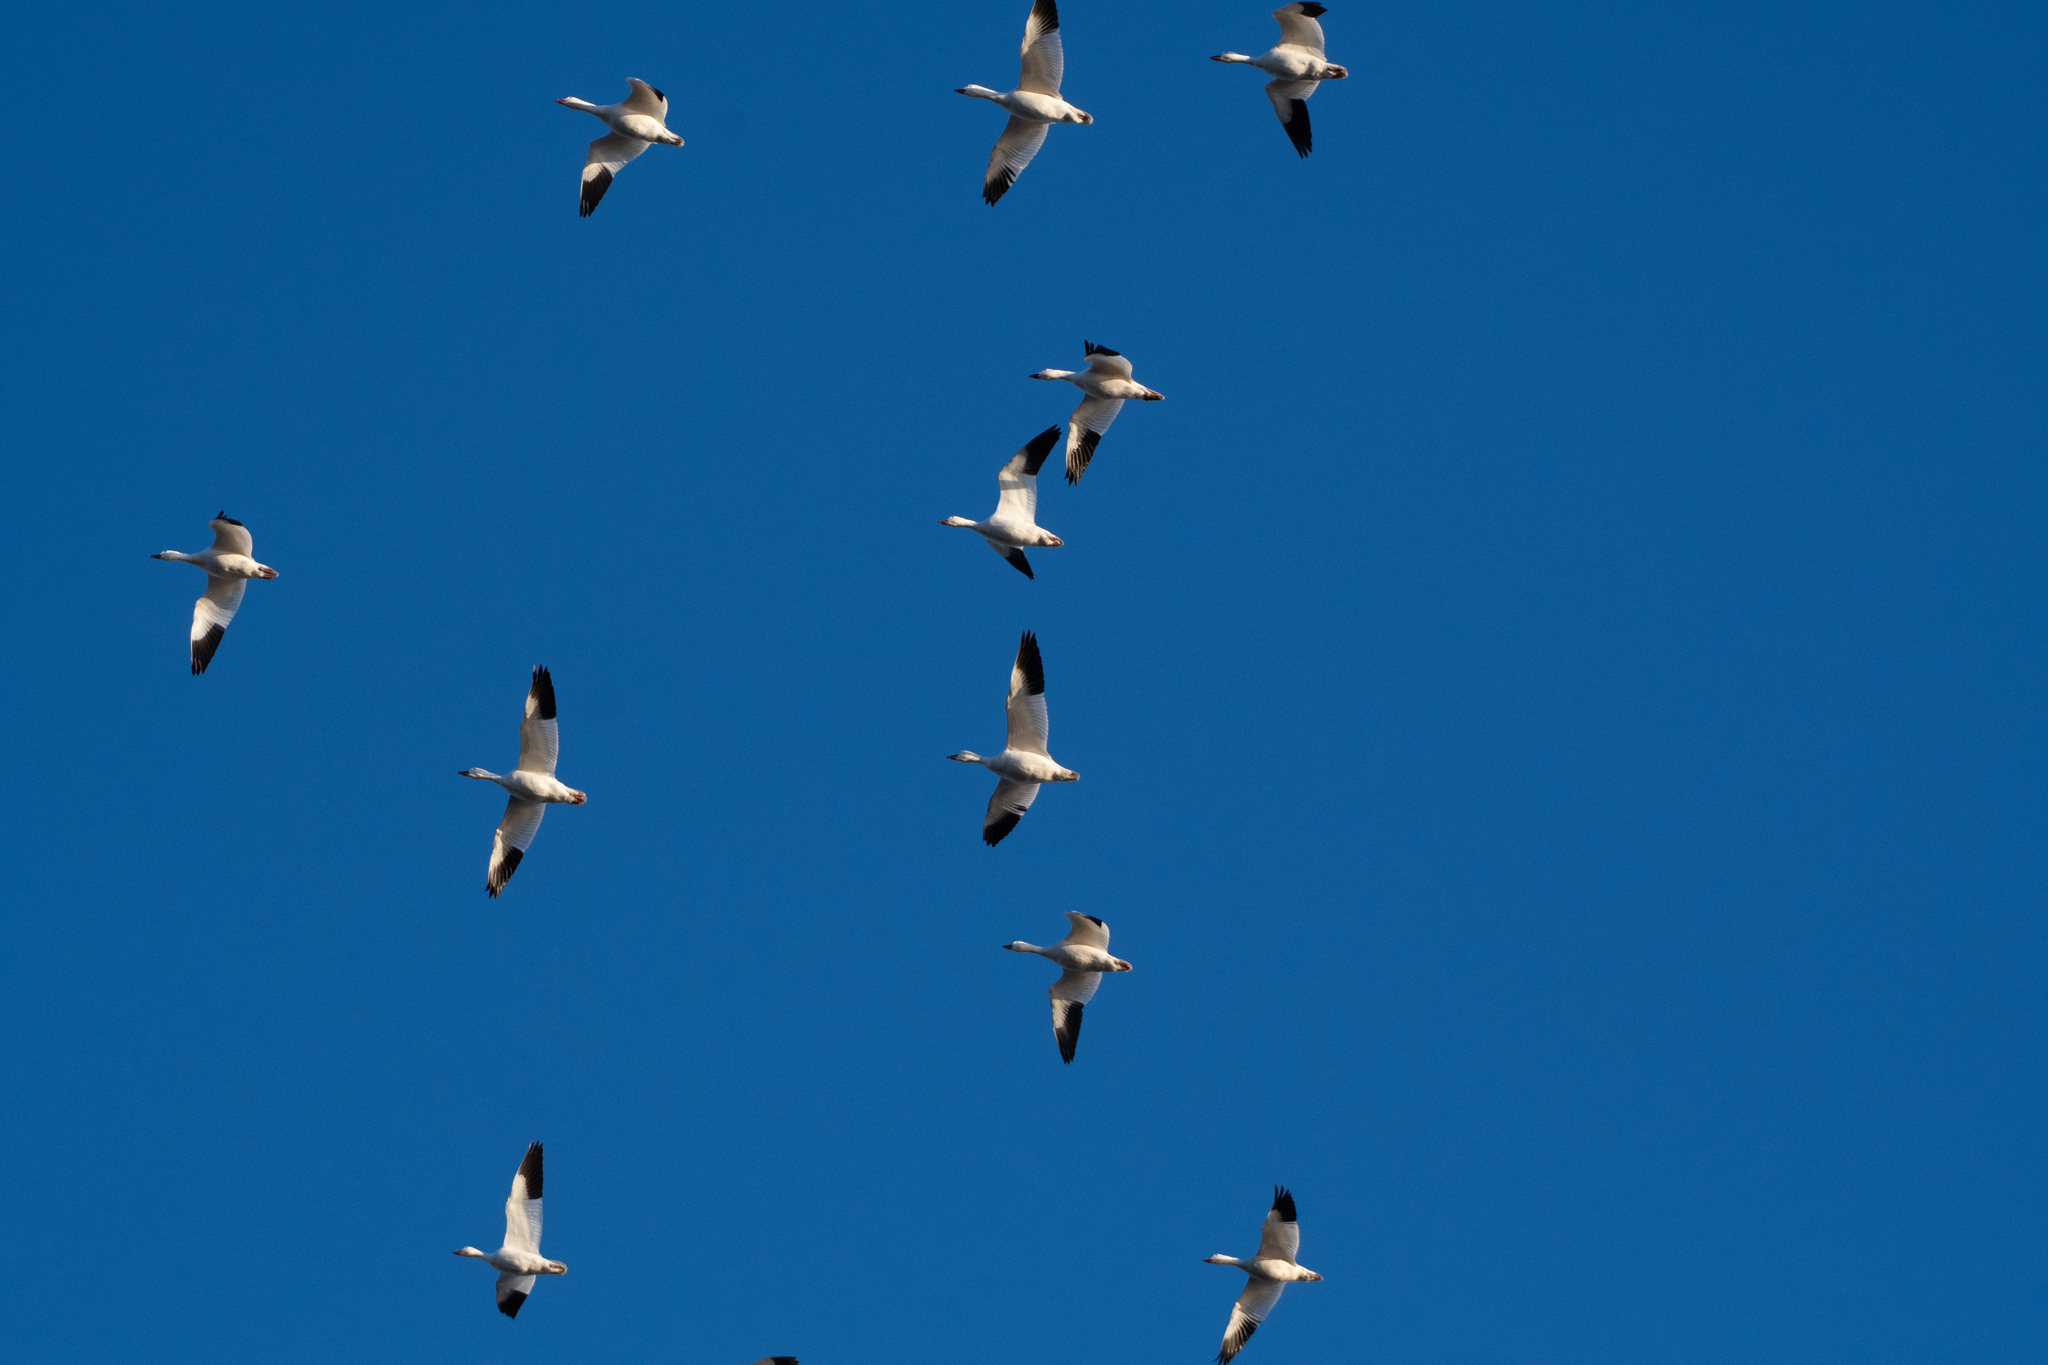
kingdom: Animalia
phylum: Chordata
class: Aves
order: Anseriformes
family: Anatidae
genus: Anser
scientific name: Anser caerulescens
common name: Snow goose
